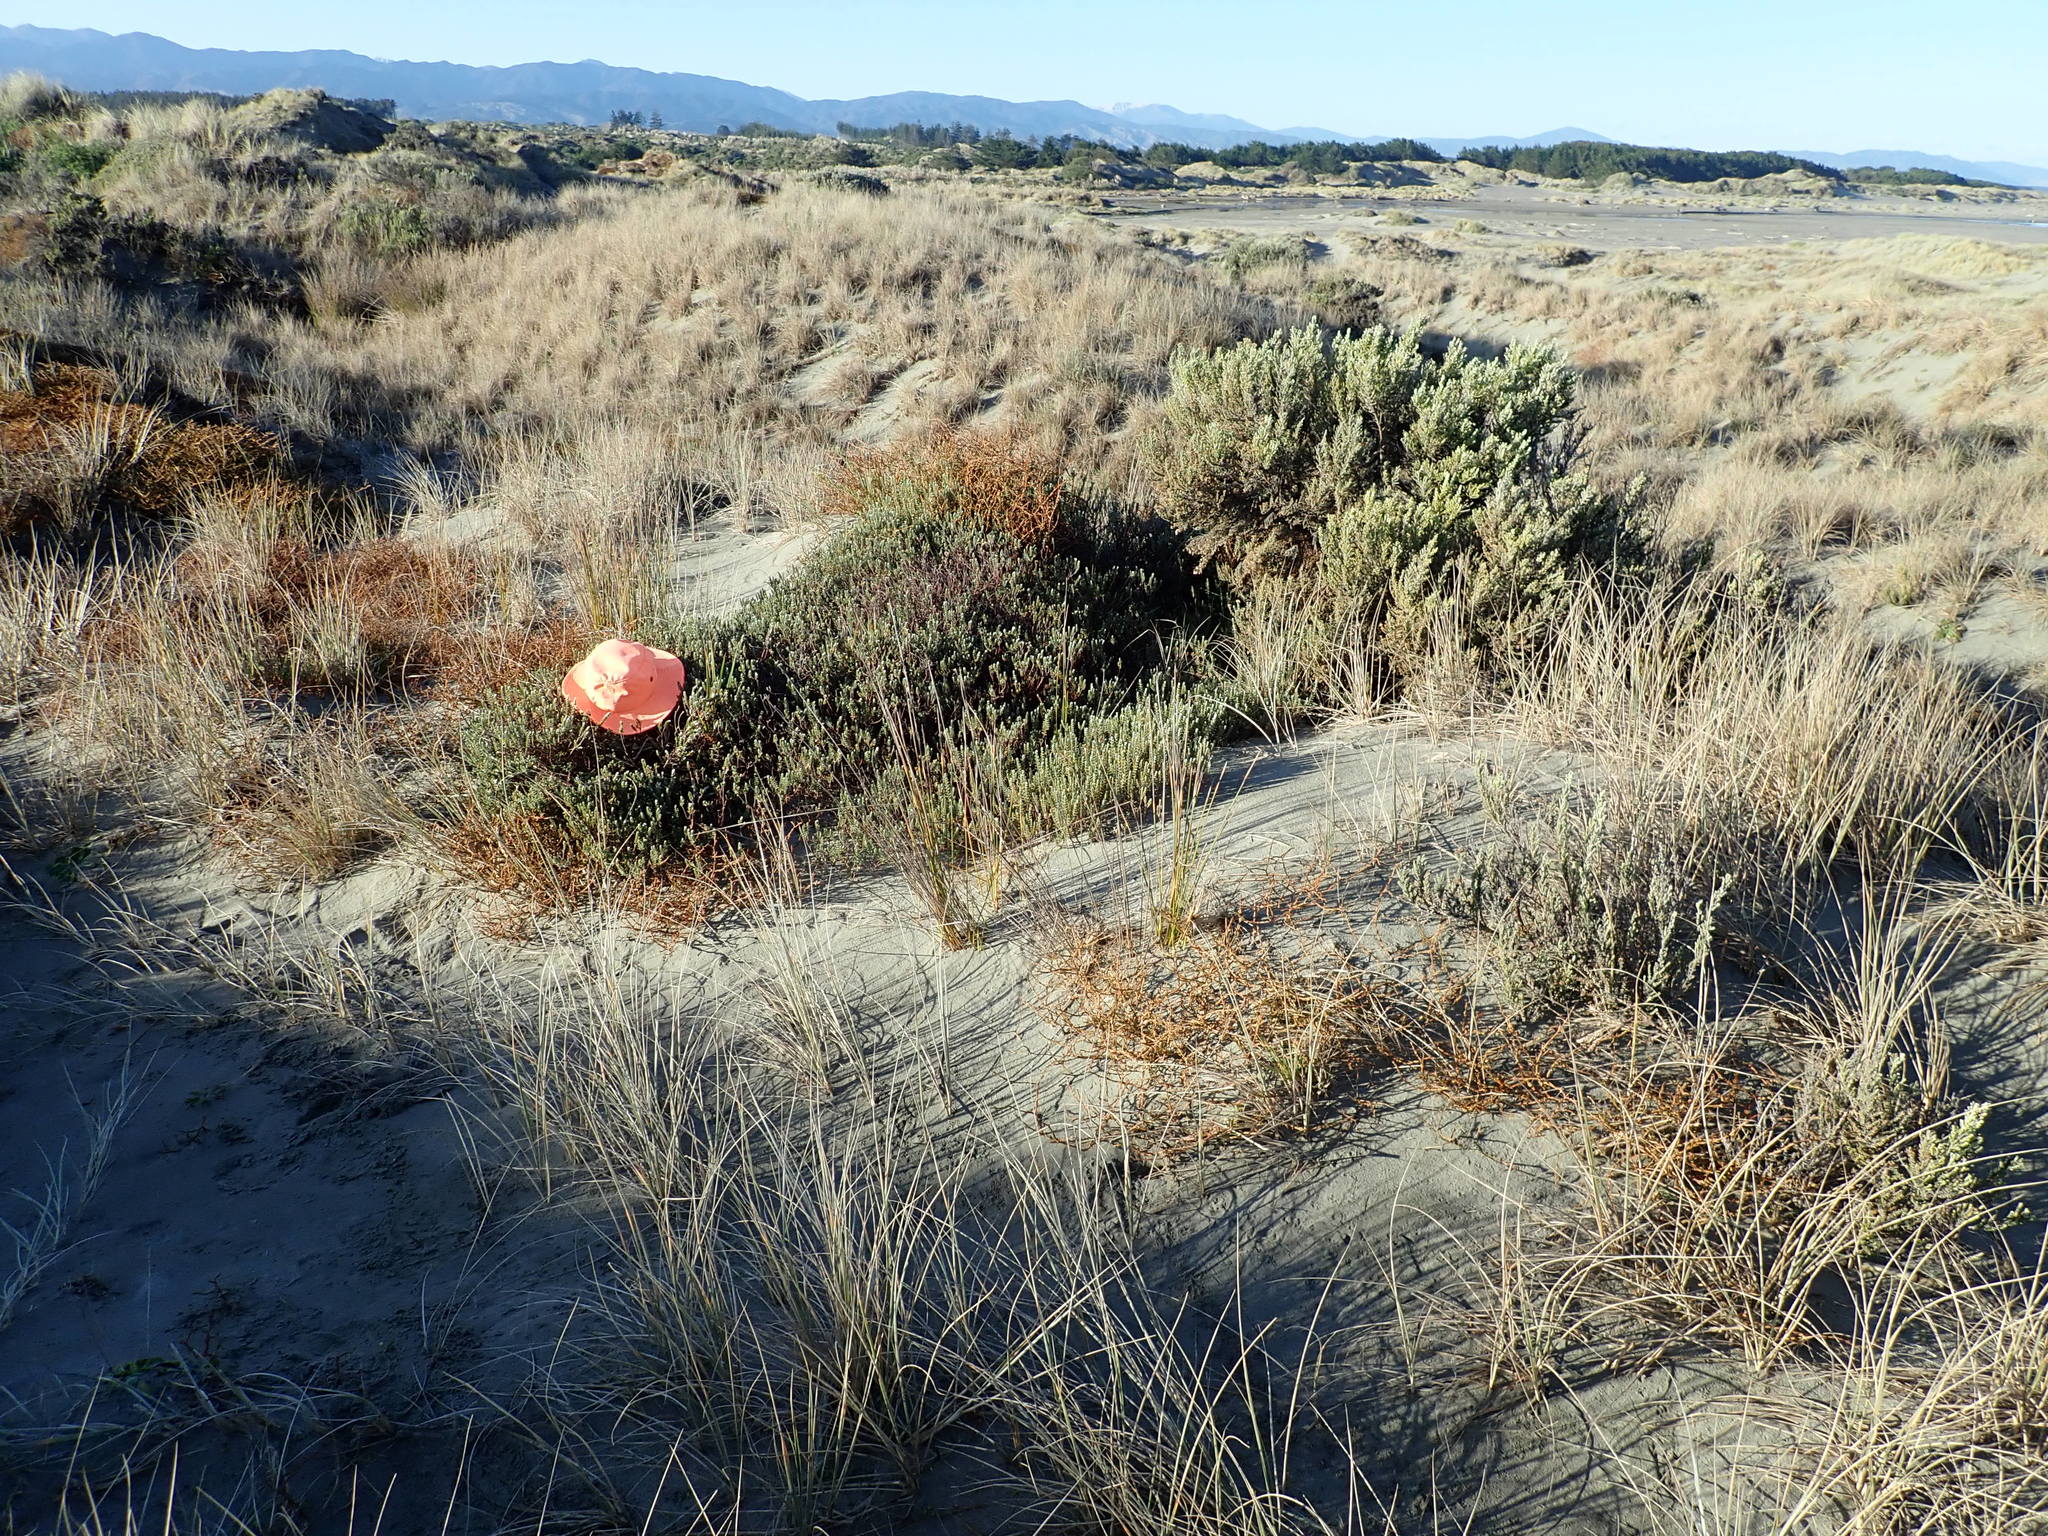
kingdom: Animalia
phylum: Arthropoda
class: Arachnida
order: Araneae
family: Theridiidae
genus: Steatoda
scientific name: Steatoda capensis
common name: Cobweb weaver
